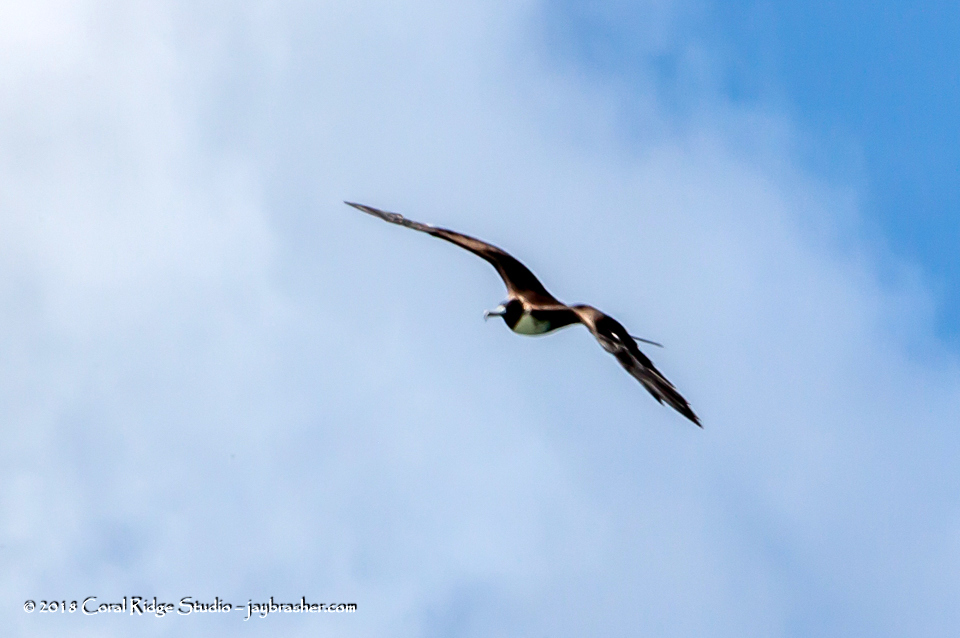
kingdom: Animalia
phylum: Chordata
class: Aves
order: Suliformes
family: Fregatidae
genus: Fregata
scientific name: Fregata magnificens
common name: Magnificent frigatebird
